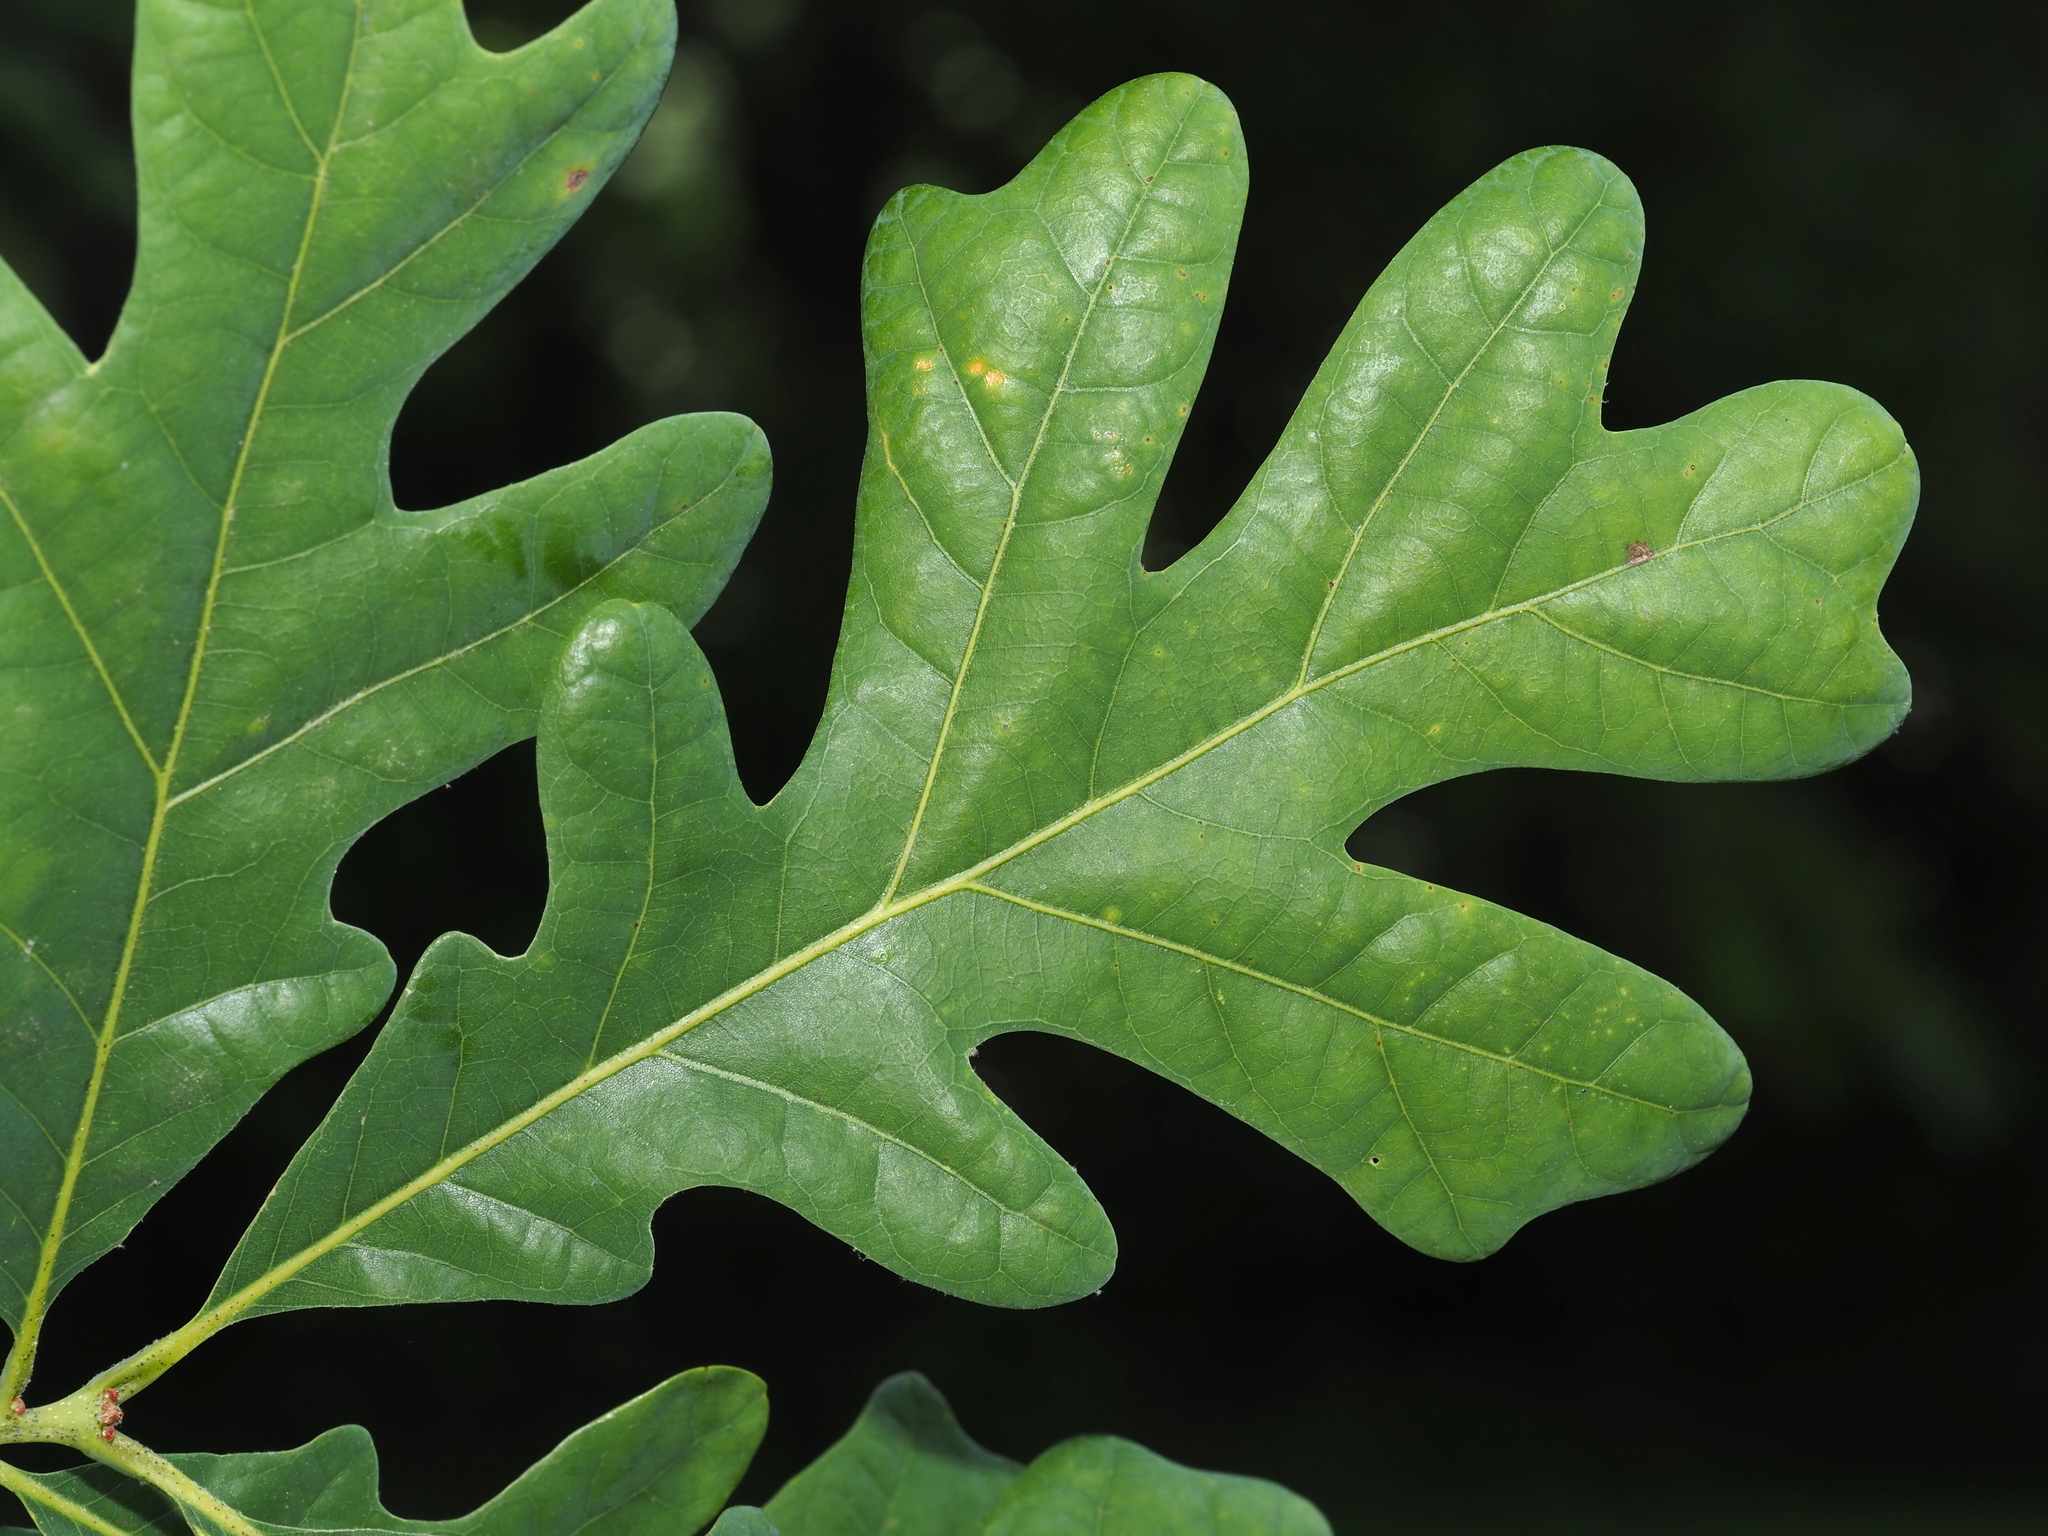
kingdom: Plantae
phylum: Tracheophyta
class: Magnoliopsida
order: Fagales
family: Fagaceae
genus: Quercus
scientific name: Quercus alba
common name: White oak
